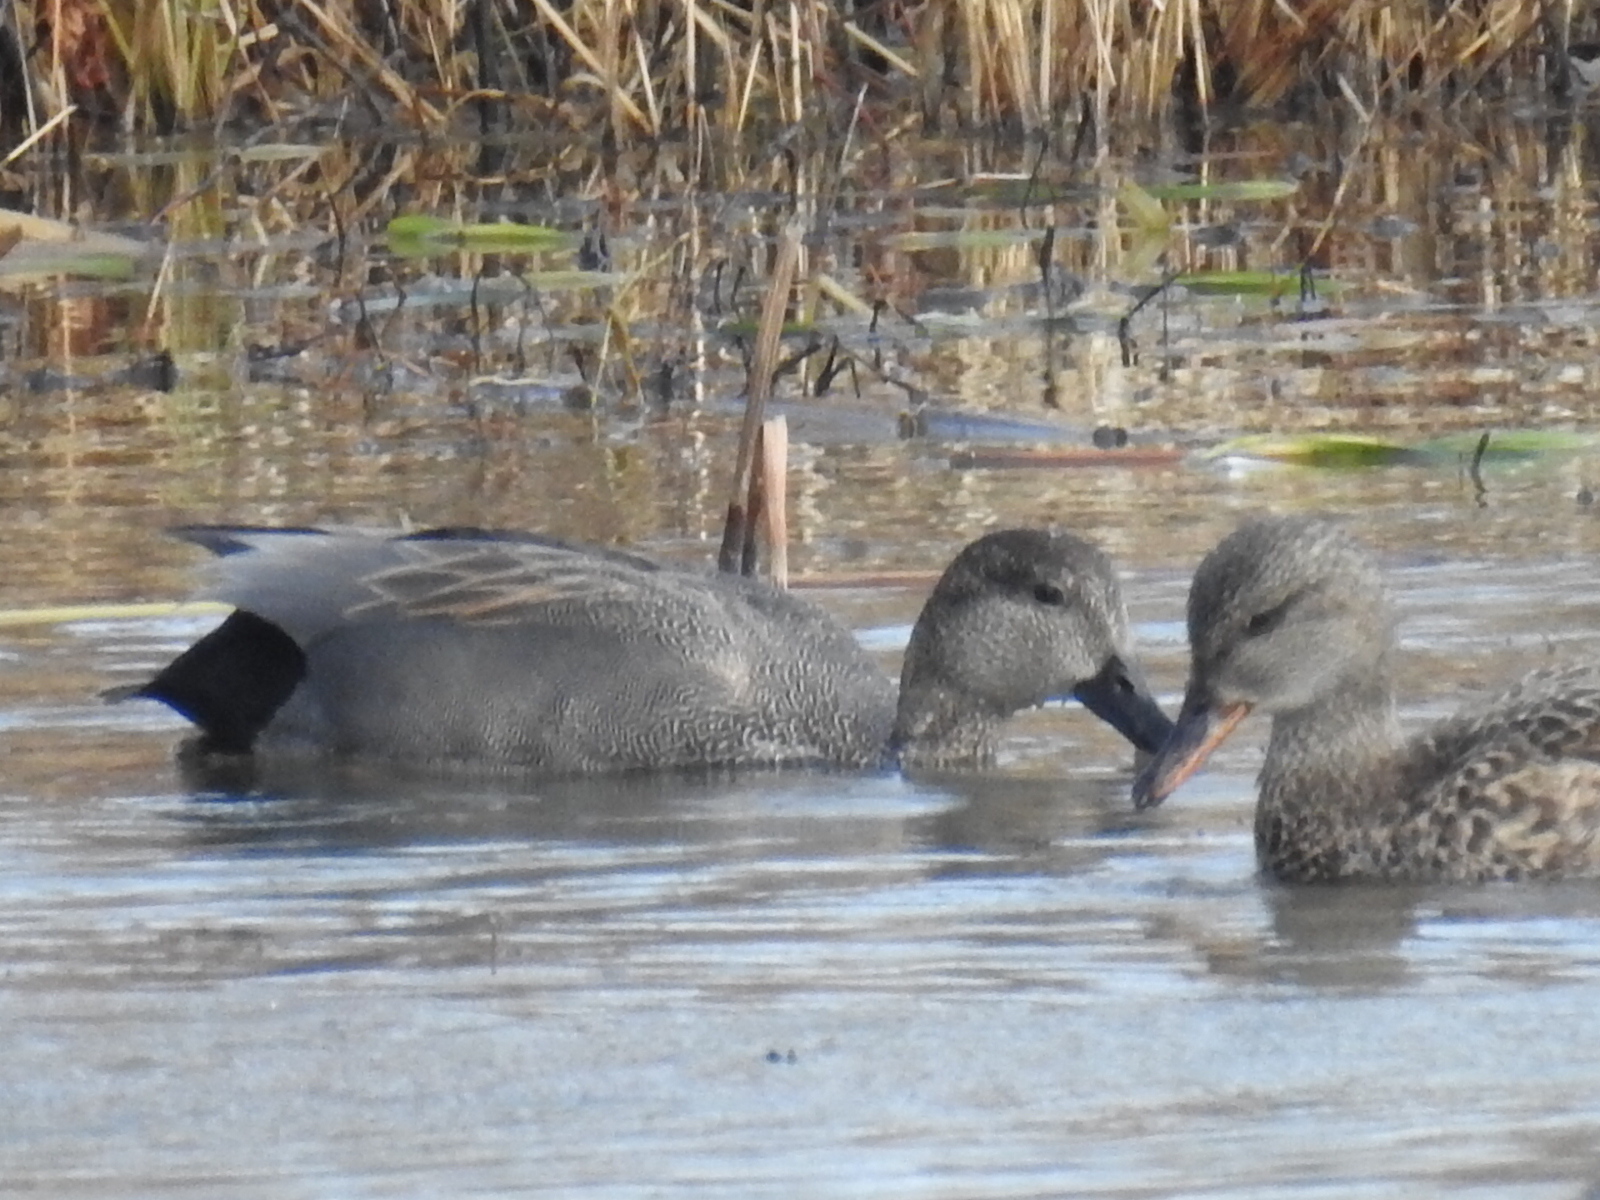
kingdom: Animalia
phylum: Chordata
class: Aves
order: Anseriformes
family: Anatidae
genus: Mareca
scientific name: Mareca strepera
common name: Gadwall
